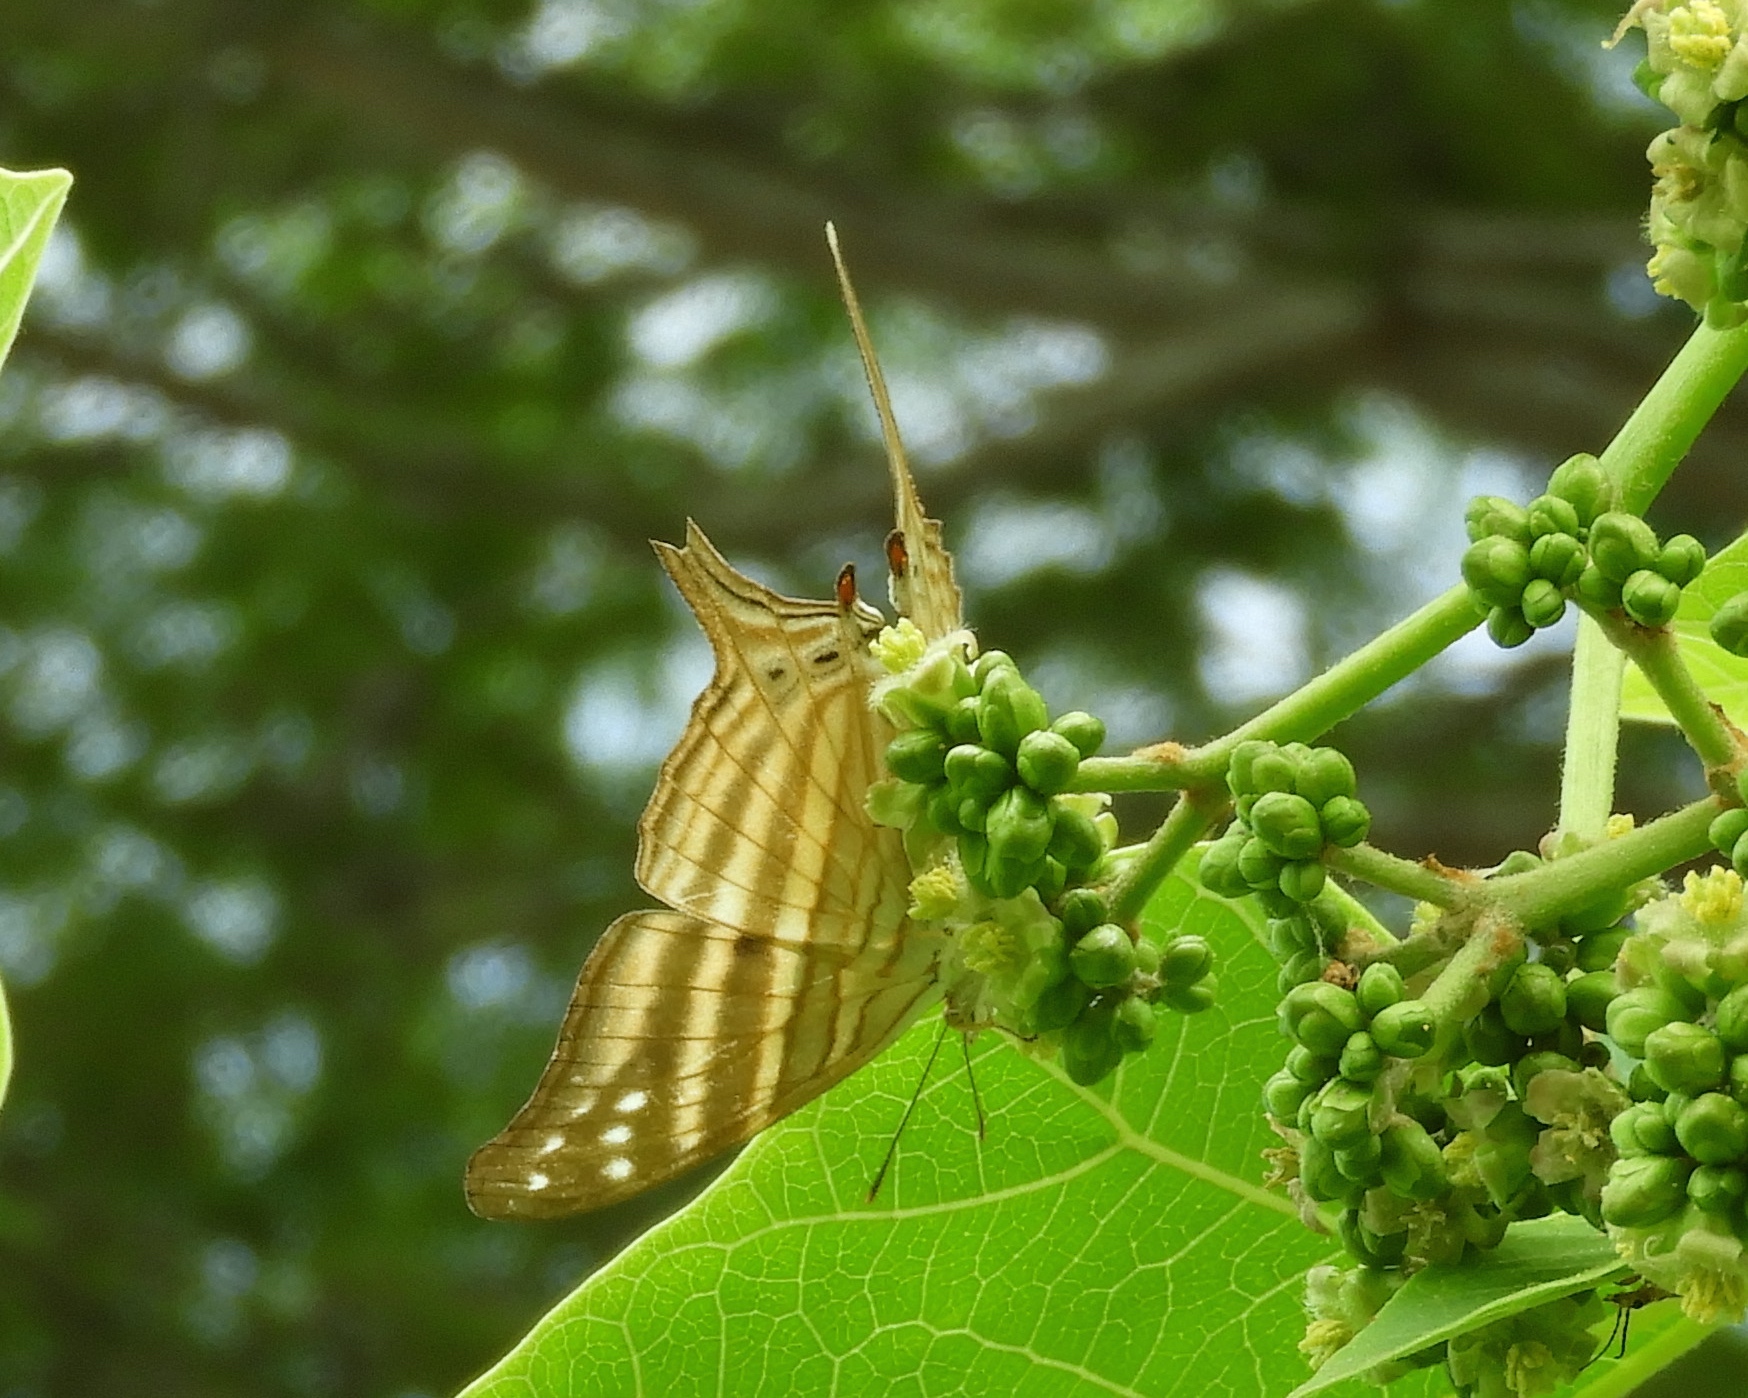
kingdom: Animalia
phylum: Arthropoda
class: Insecta
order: Lepidoptera
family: Nymphalidae
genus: Marpesia
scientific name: Marpesia chiron
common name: Many-banded daggerwing
